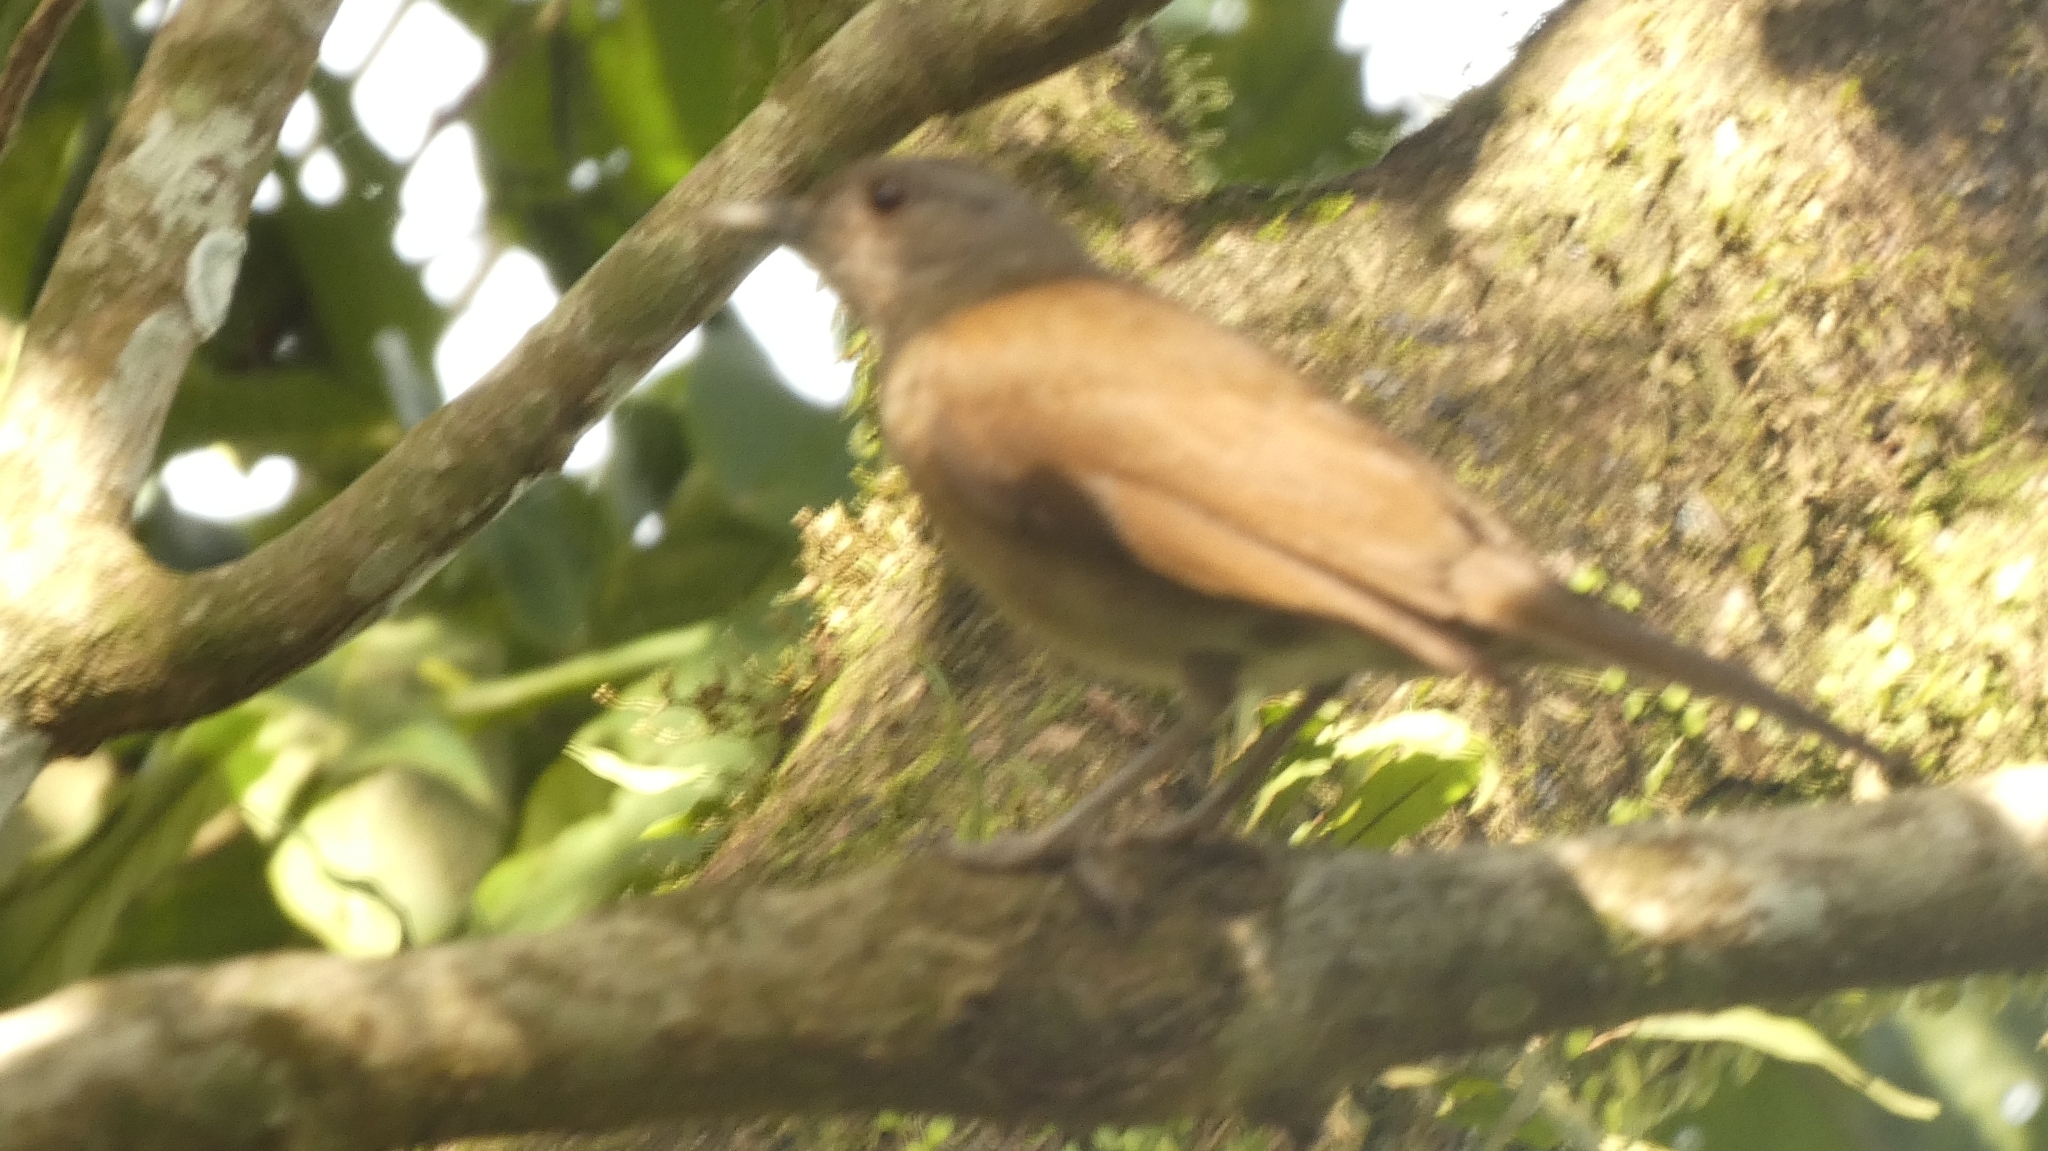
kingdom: Animalia
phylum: Chordata
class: Aves
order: Passeriformes
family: Turdidae
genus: Turdus
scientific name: Turdus leucomelas
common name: Pale-breasted thrush
